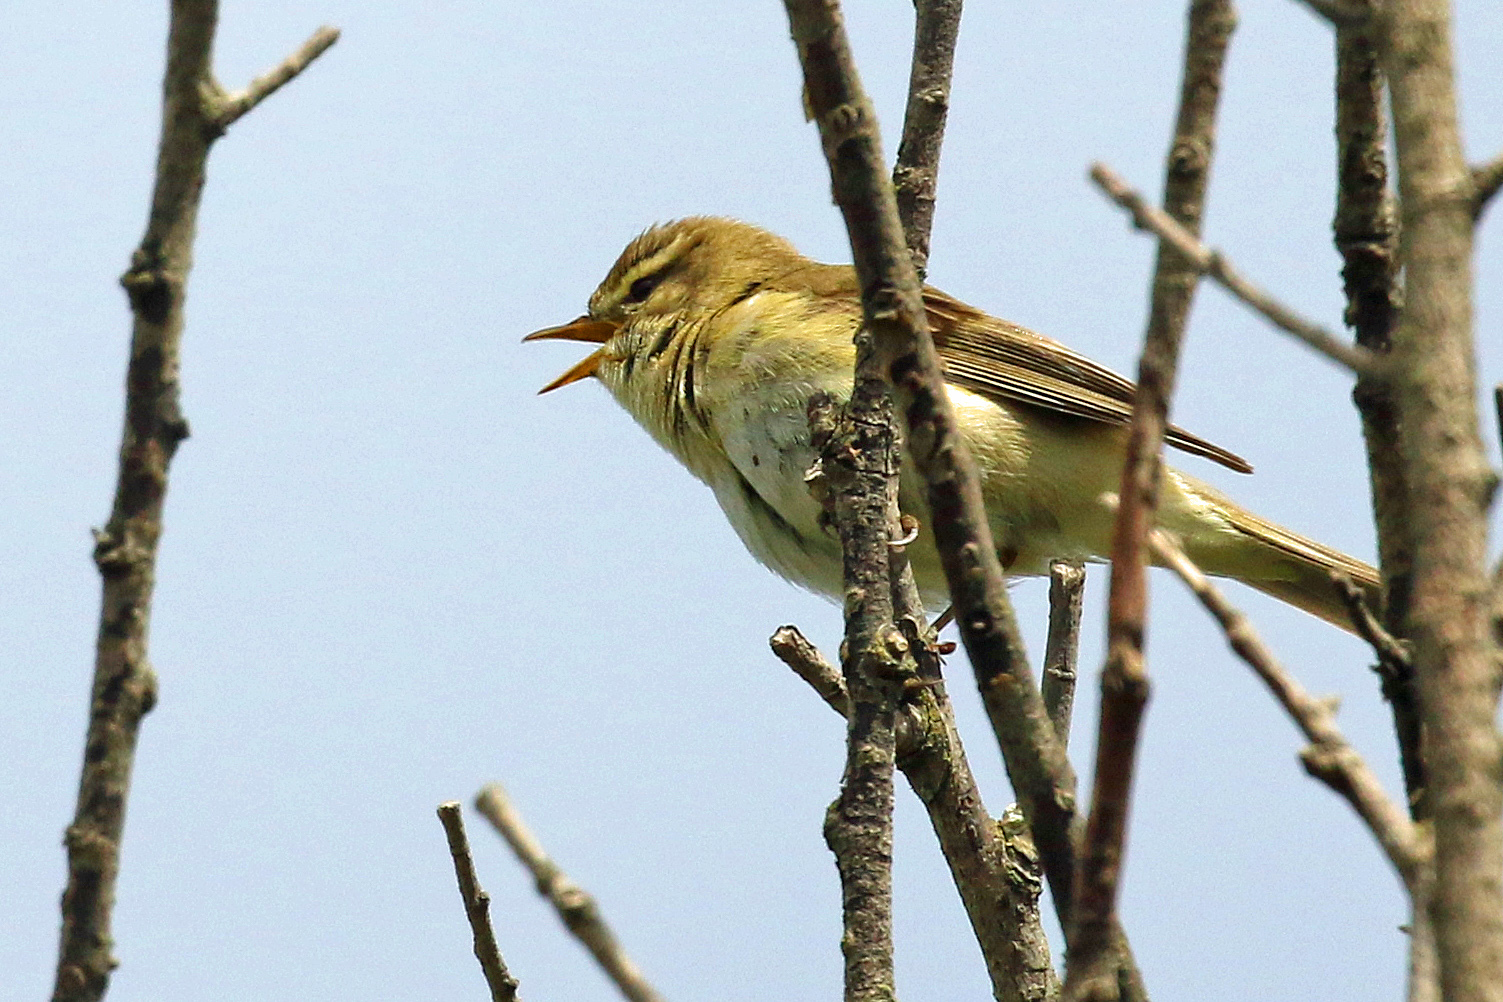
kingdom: Animalia
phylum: Chordata
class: Aves
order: Passeriformes
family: Phylloscopidae
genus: Phylloscopus
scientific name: Phylloscopus trochilus
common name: Willow warbler
